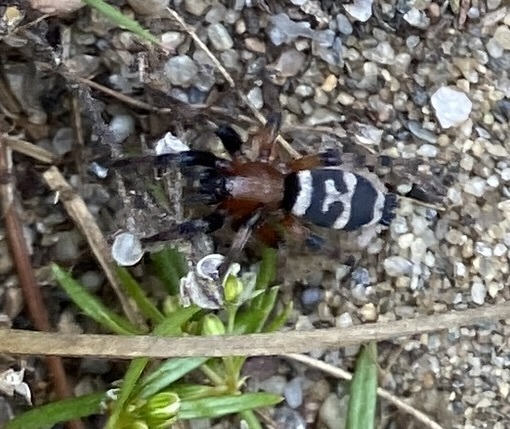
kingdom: Animalia
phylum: Arthropoda
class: Arachnida
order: Araneae
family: Gnaphosidae
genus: Sergiolus
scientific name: Sergiolus capulatus
